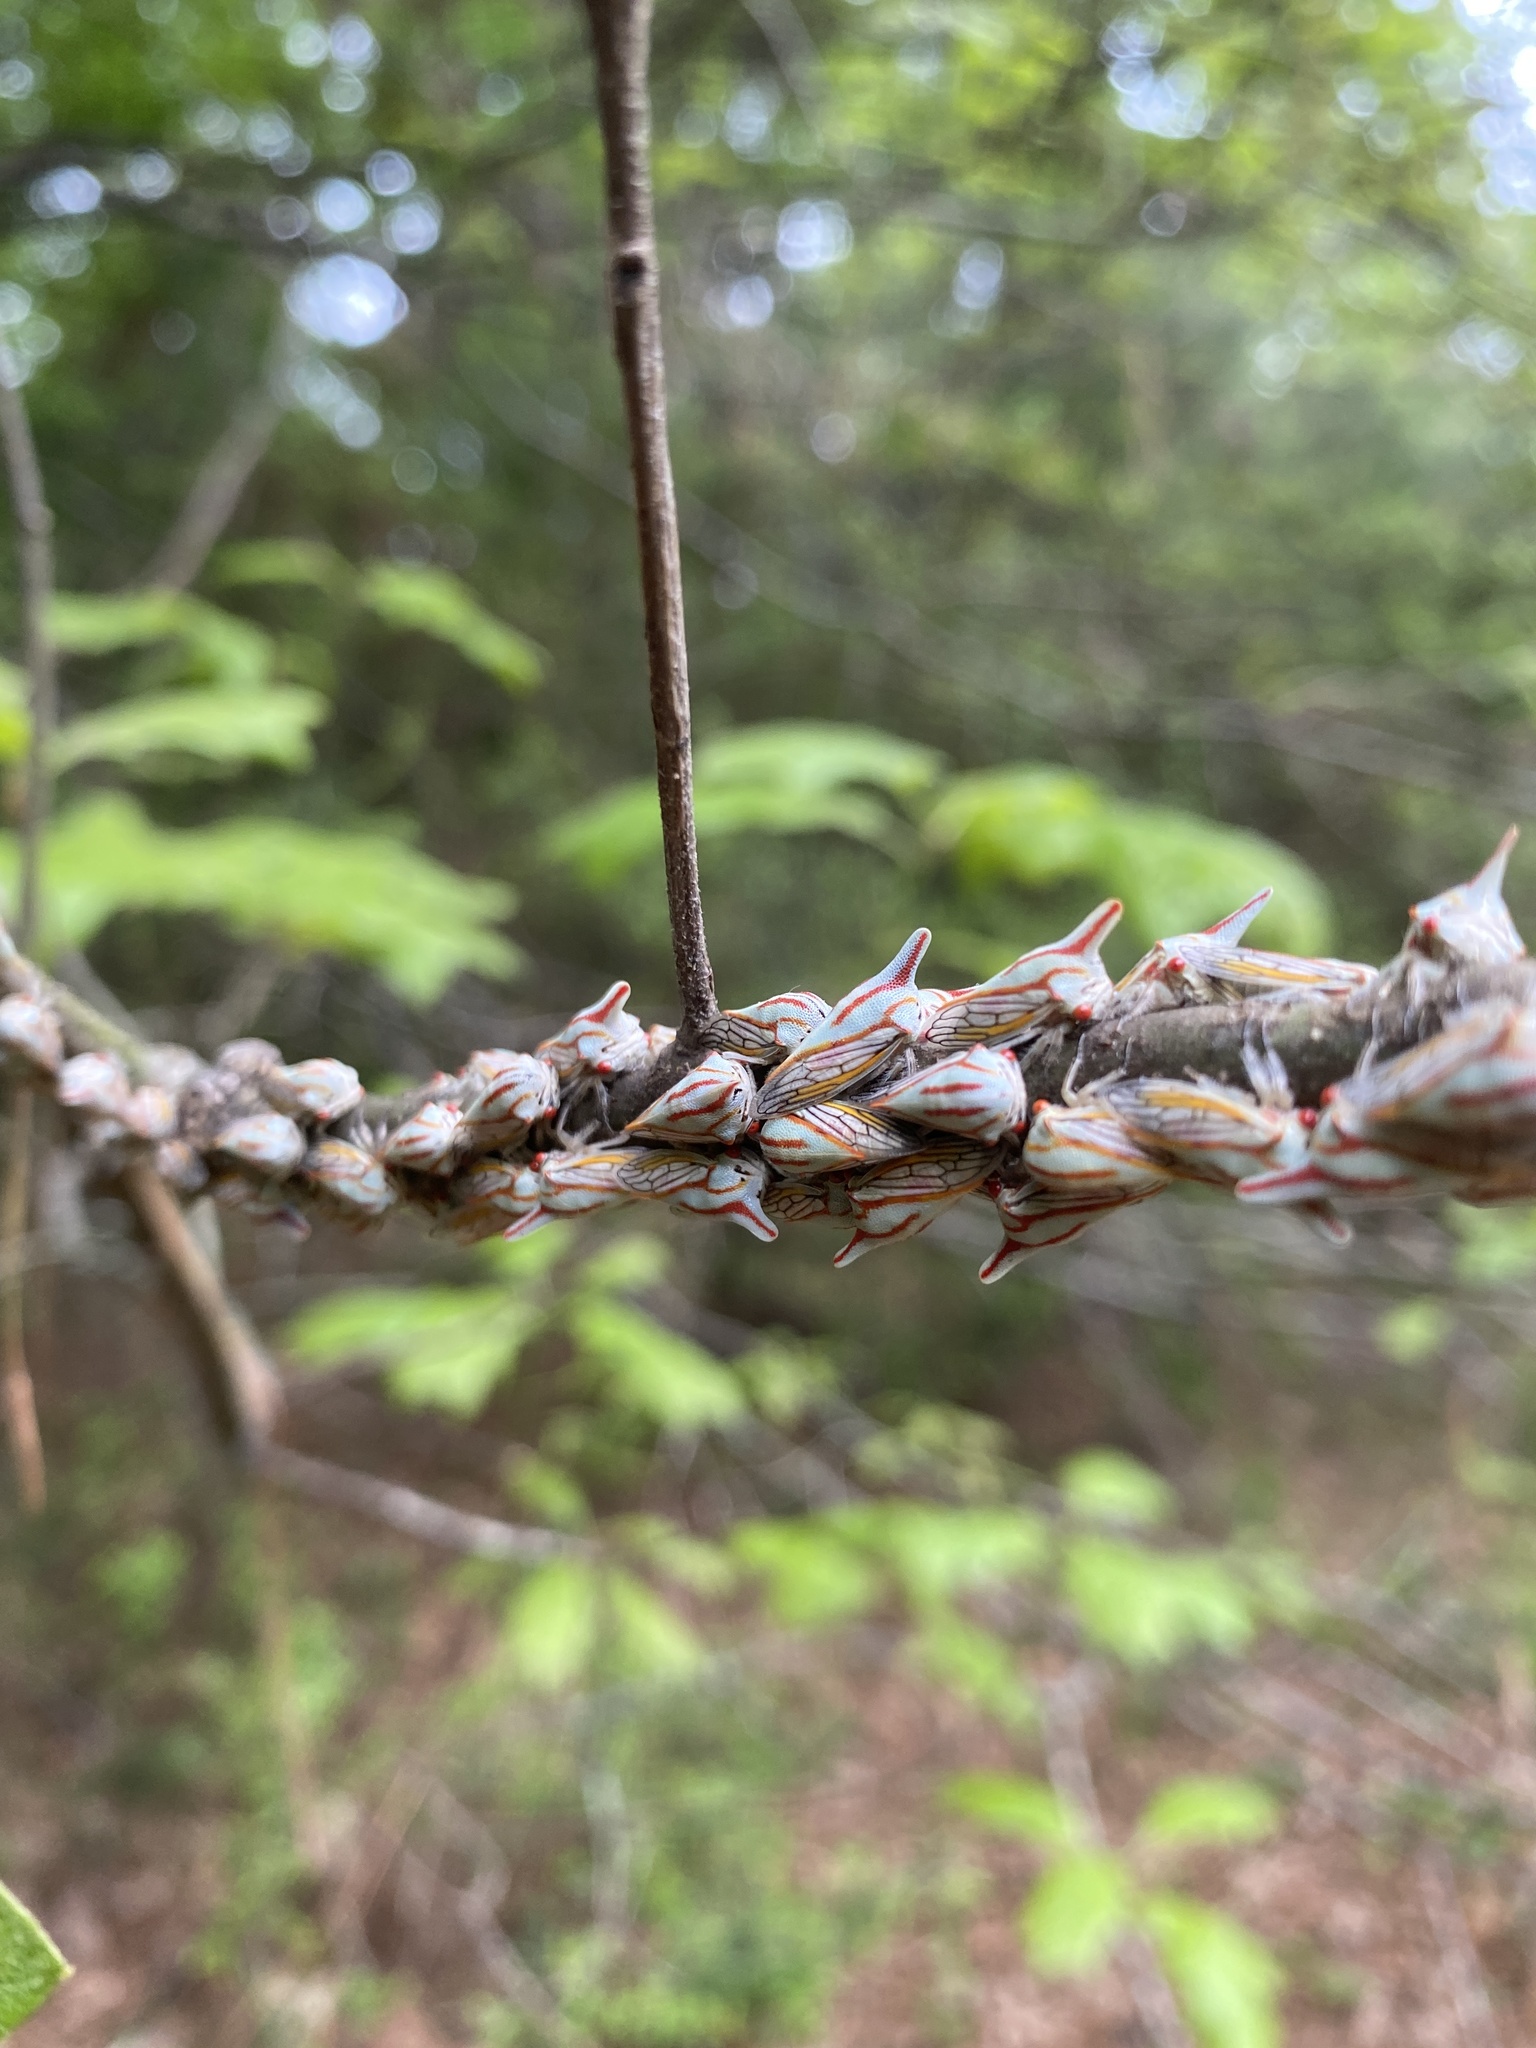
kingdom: Animalia
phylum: Arthropoda
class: Insecta
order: Hemiptera
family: Membracidae
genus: Platycotis
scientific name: Platycotis vittatus
